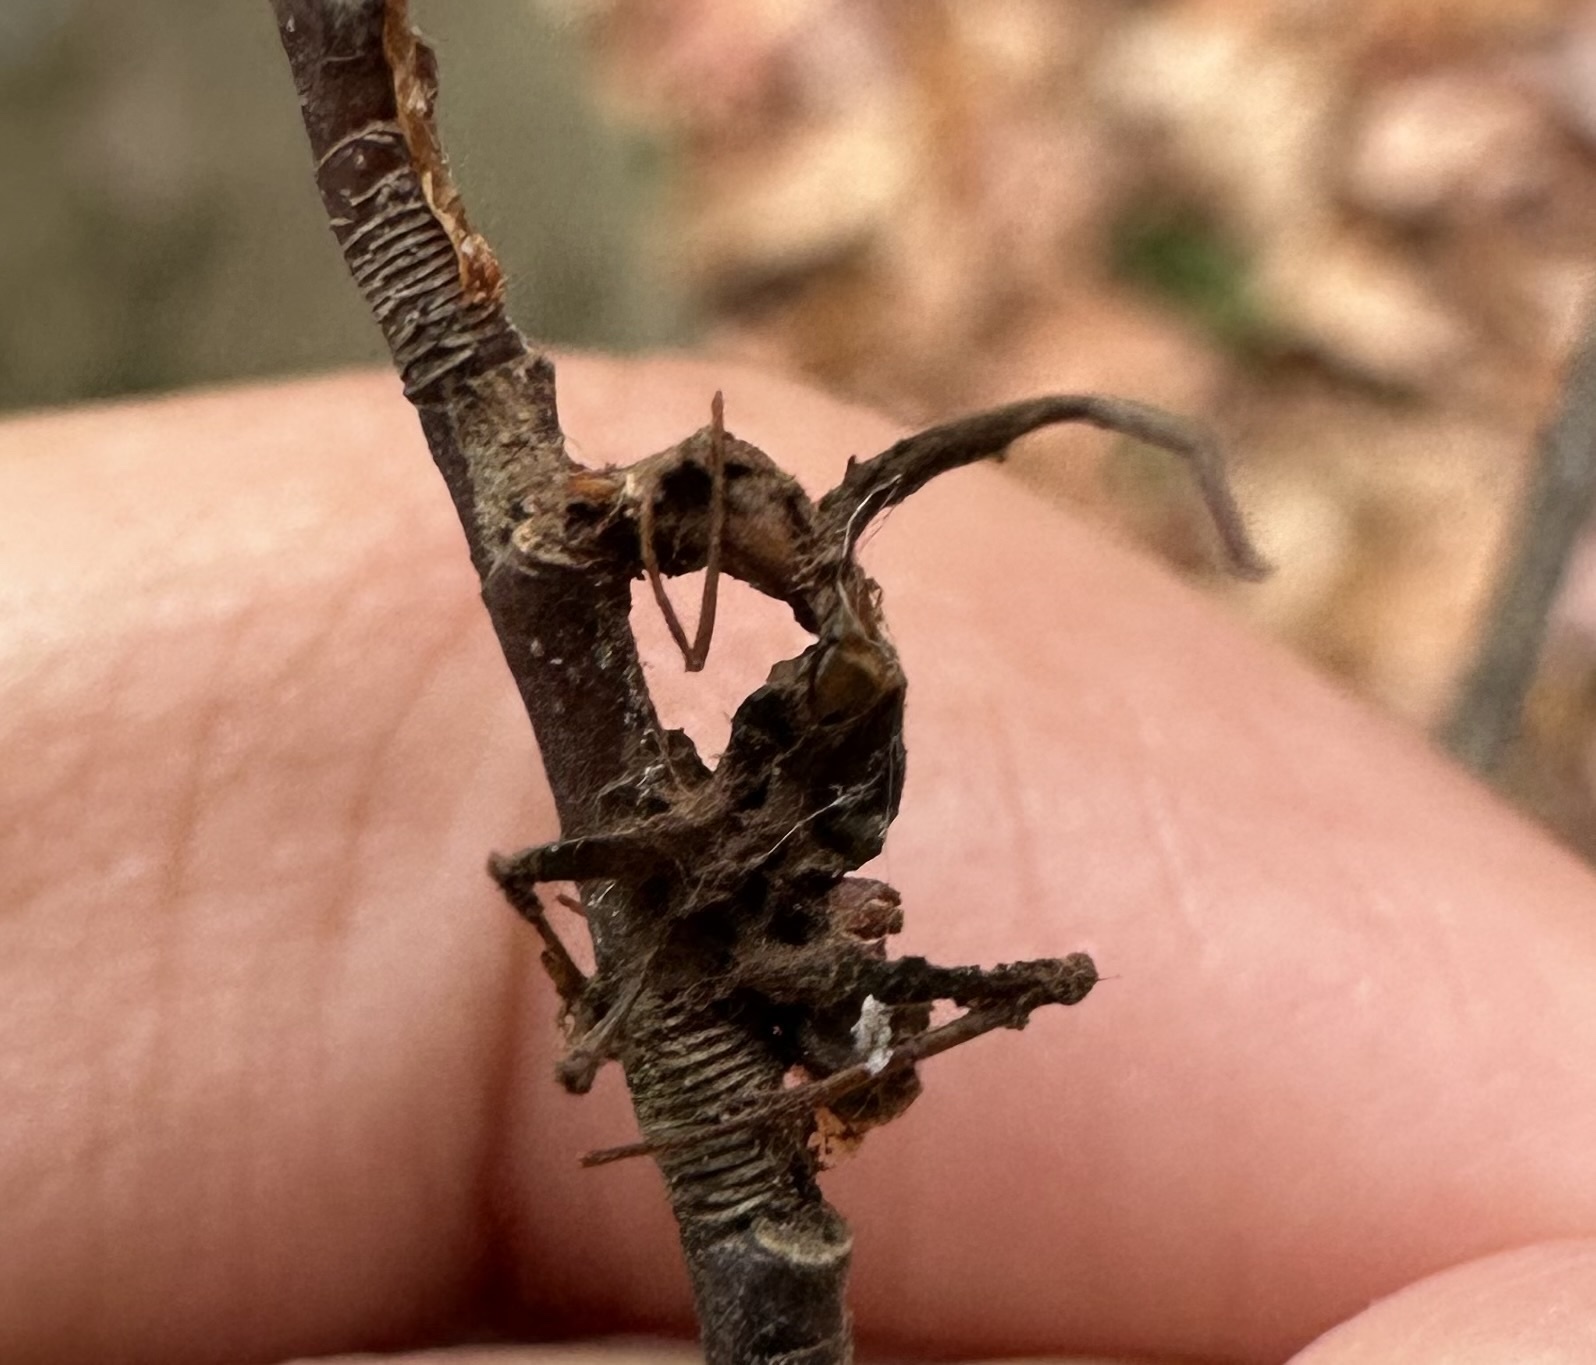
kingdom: Fungi
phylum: Ascomycota
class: Sordariomycetes
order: Hypocreales
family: Ophiocordycipitaceae
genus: Ophiocordyceps
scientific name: Ophiocordyceps kimflemingiae
